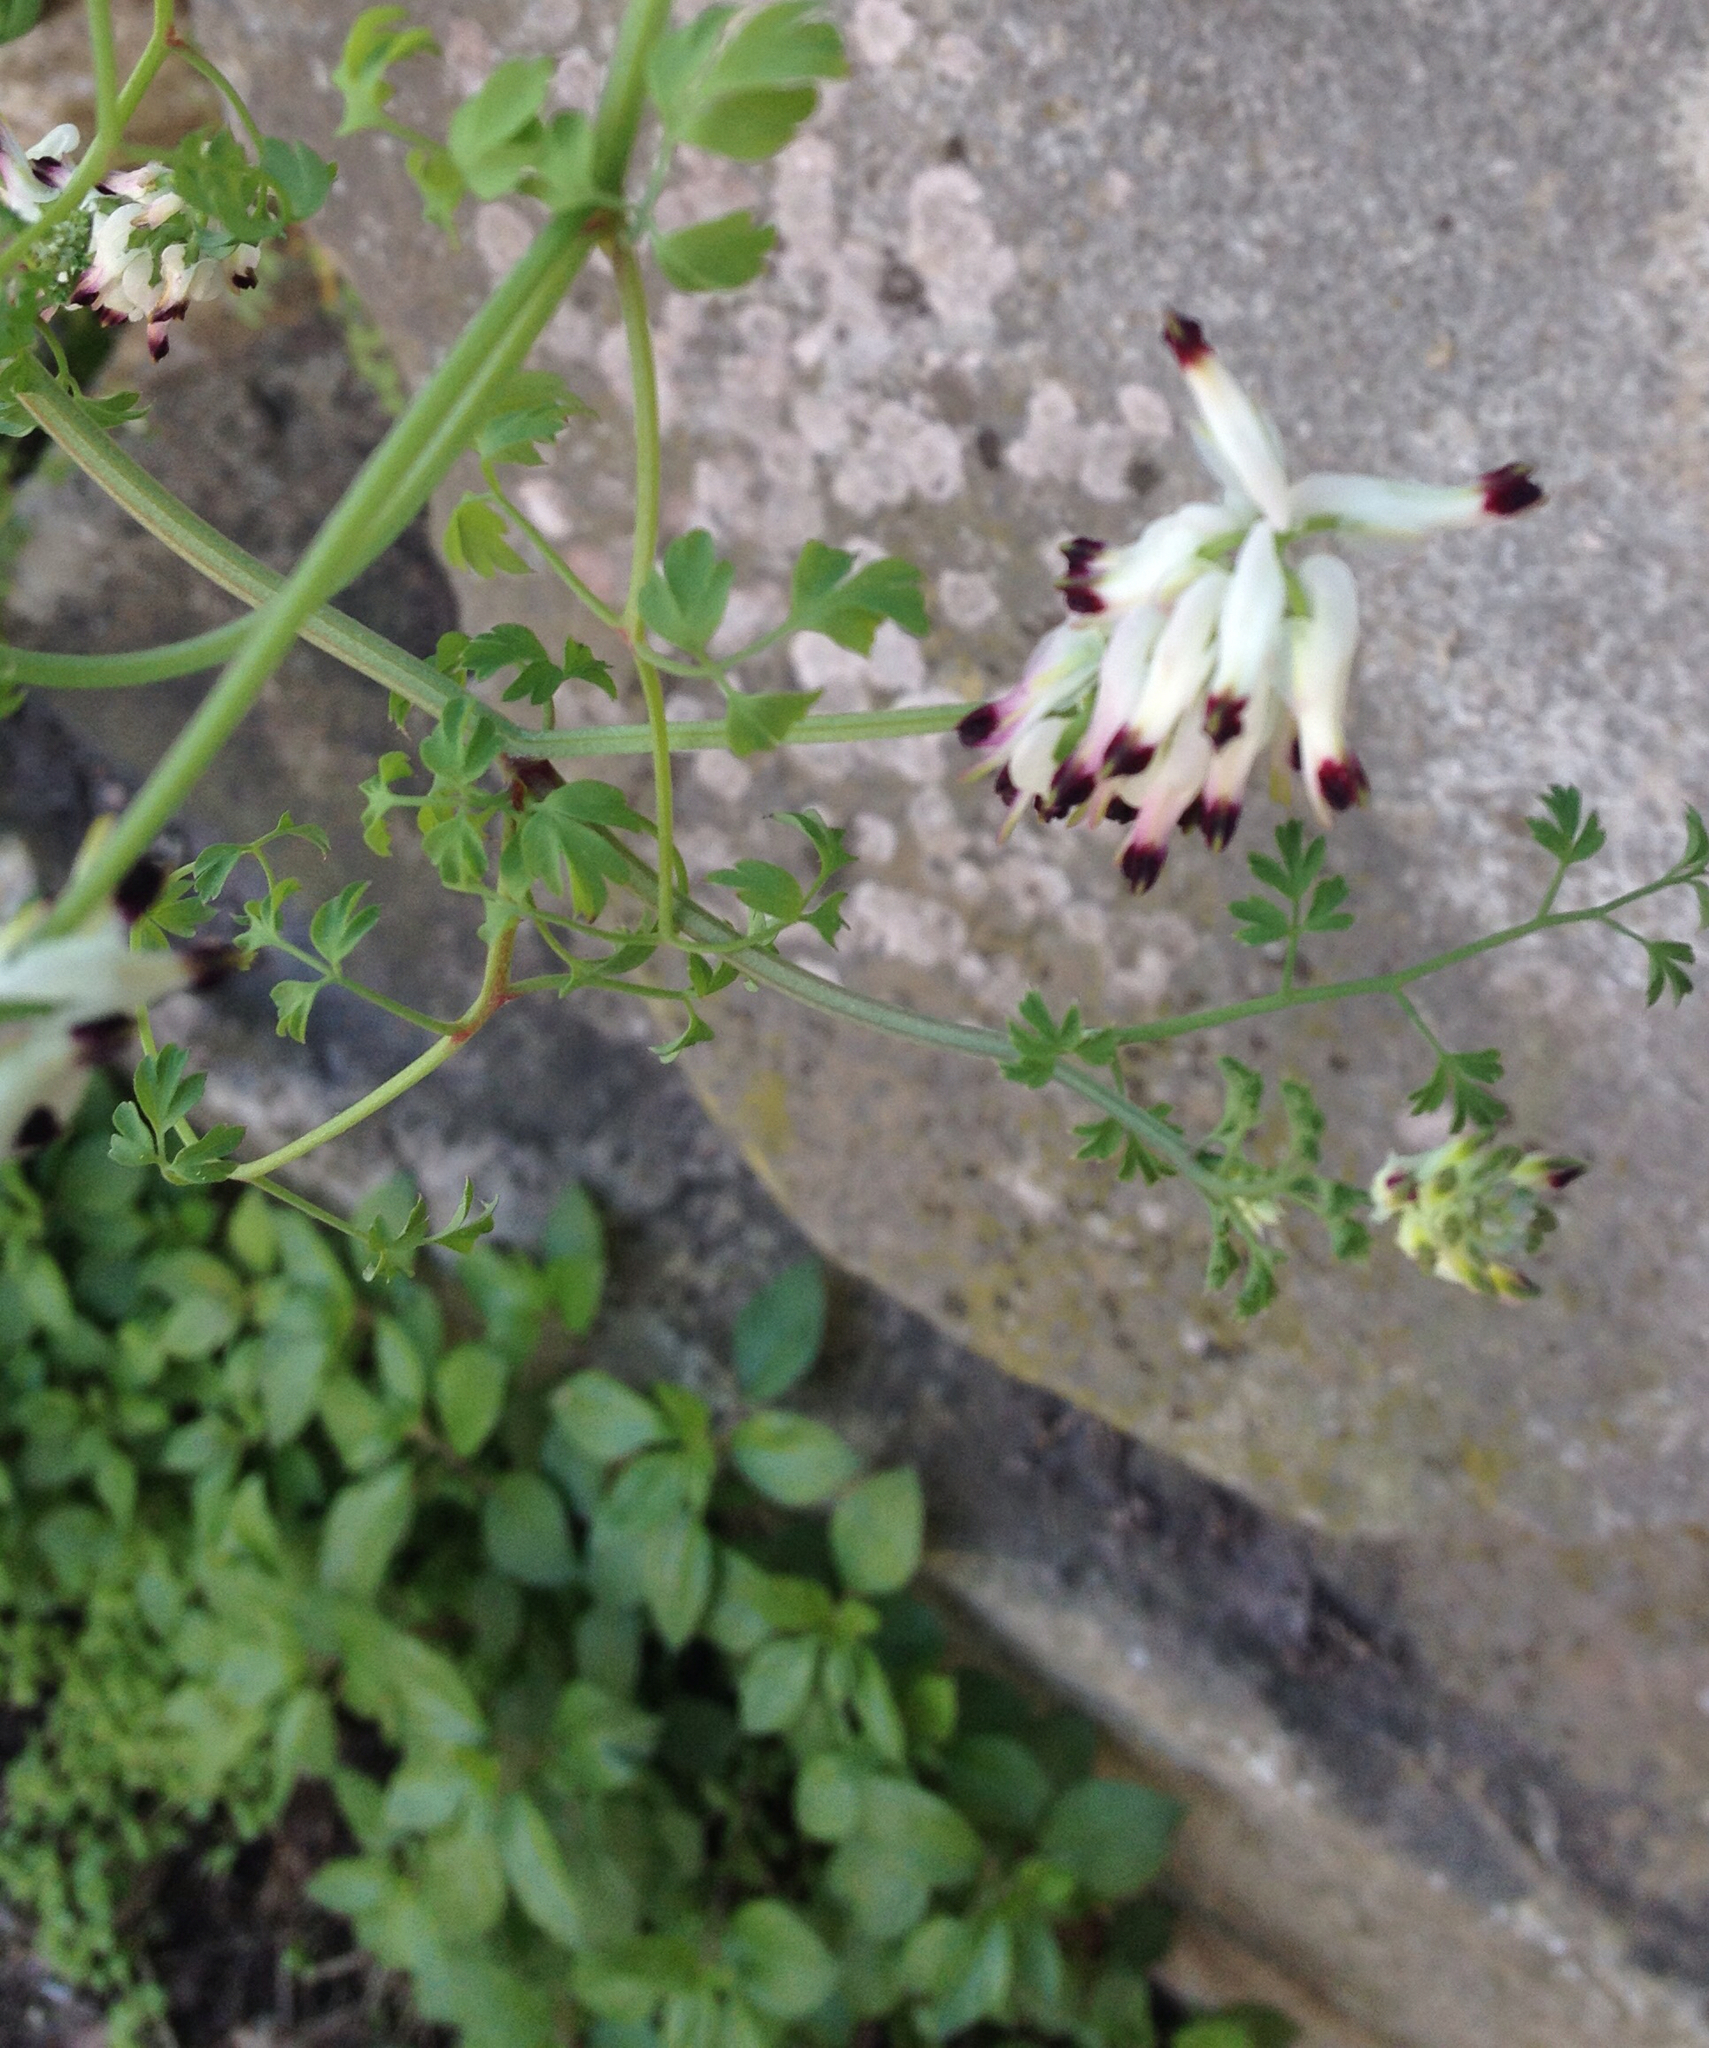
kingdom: Plantae
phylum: Tracheophyta
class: Magnoliopsida
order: Ranunculales
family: Papaveraceae
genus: Fumaria
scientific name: Fumaria capreolata
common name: White ramping-fumitory
